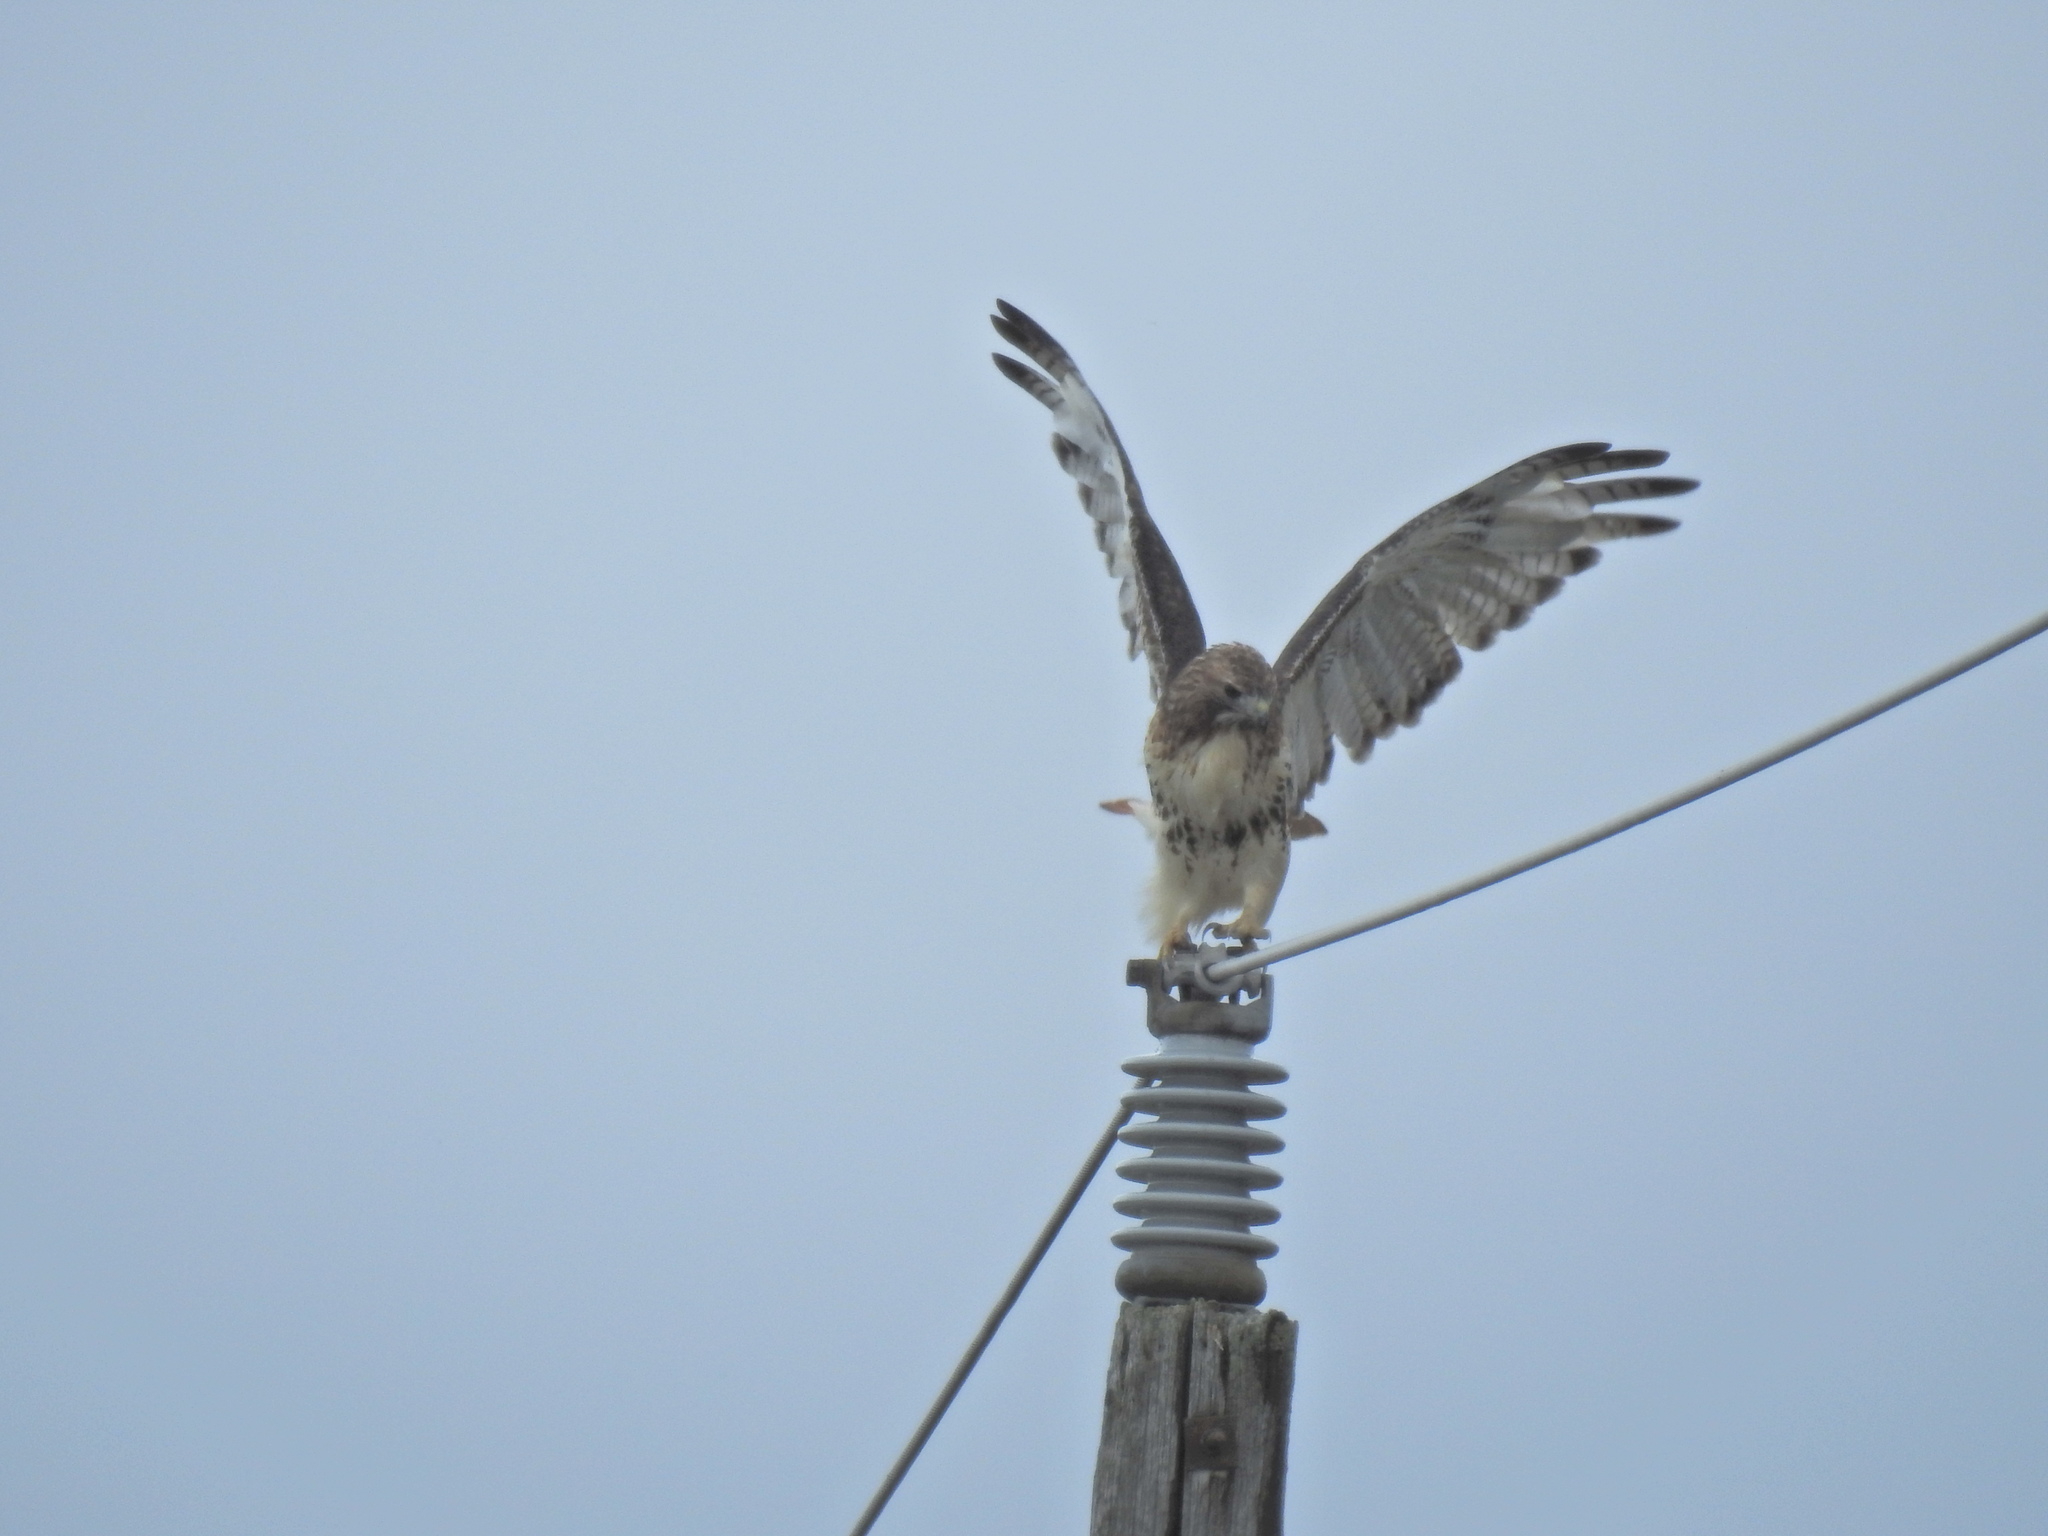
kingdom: Animalia
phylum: Chordata
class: Aves
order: Accipitriformes
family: Accipitridae
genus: Buteo
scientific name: Buteo jamaicensis
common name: Red-tailed hawk
